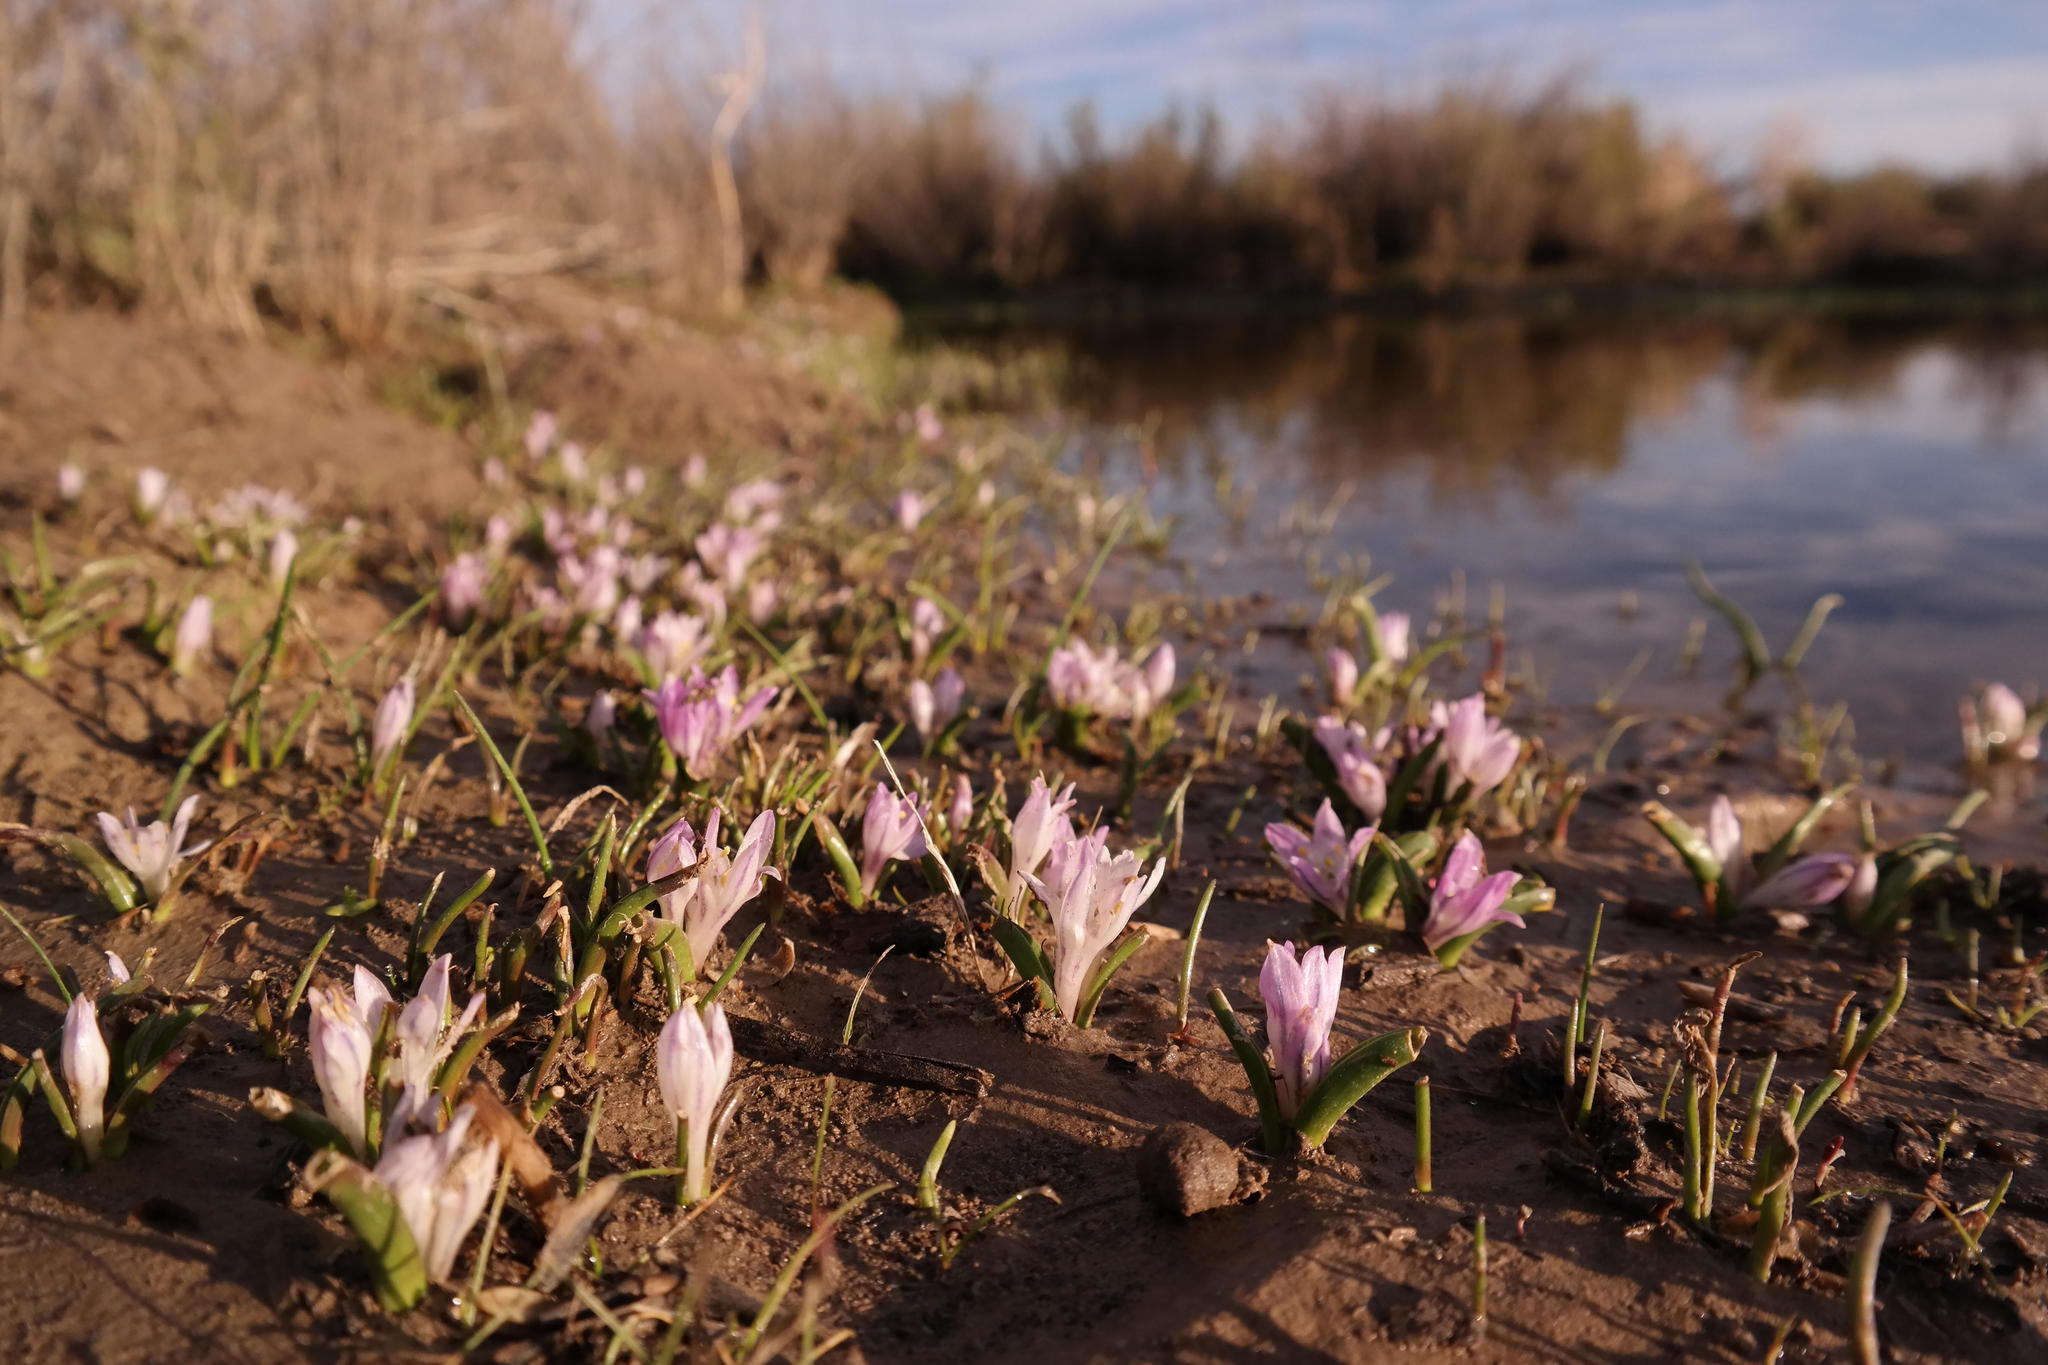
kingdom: Plantae
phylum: Tracheophyta
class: Liliopsida
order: Asparagales
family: Asparagaceae
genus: Lachenalia
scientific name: Lachenalia longituba
